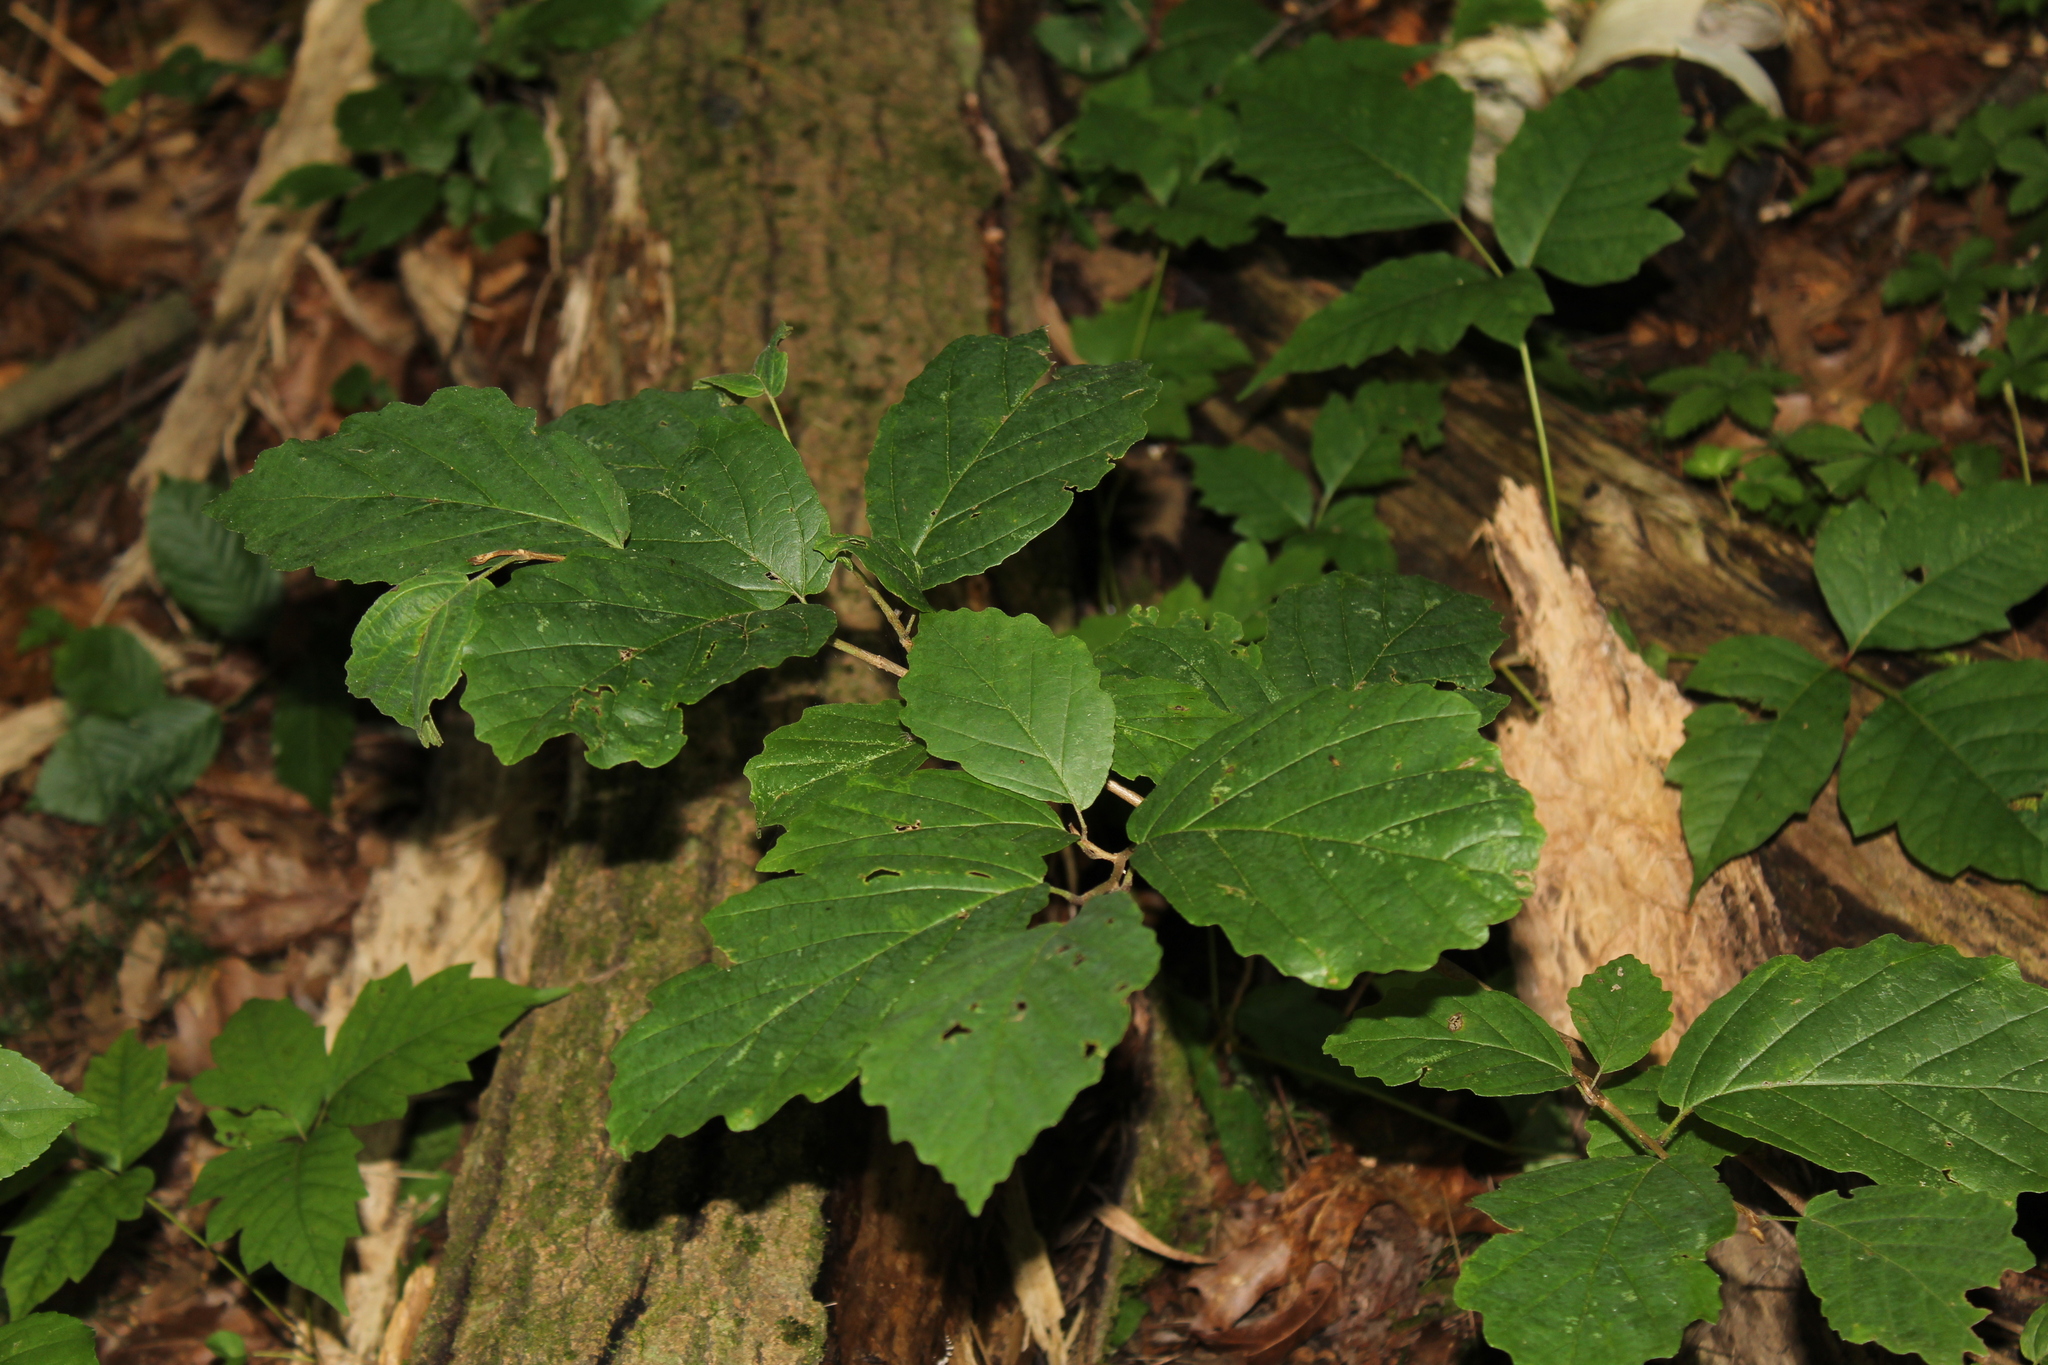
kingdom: Plantae
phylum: Tracheophyta
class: Magnoliopsida
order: Saxifragales
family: Hamamelidaceae
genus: Hamamelis
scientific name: Hamamelis virginiana
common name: Witch-hazel
